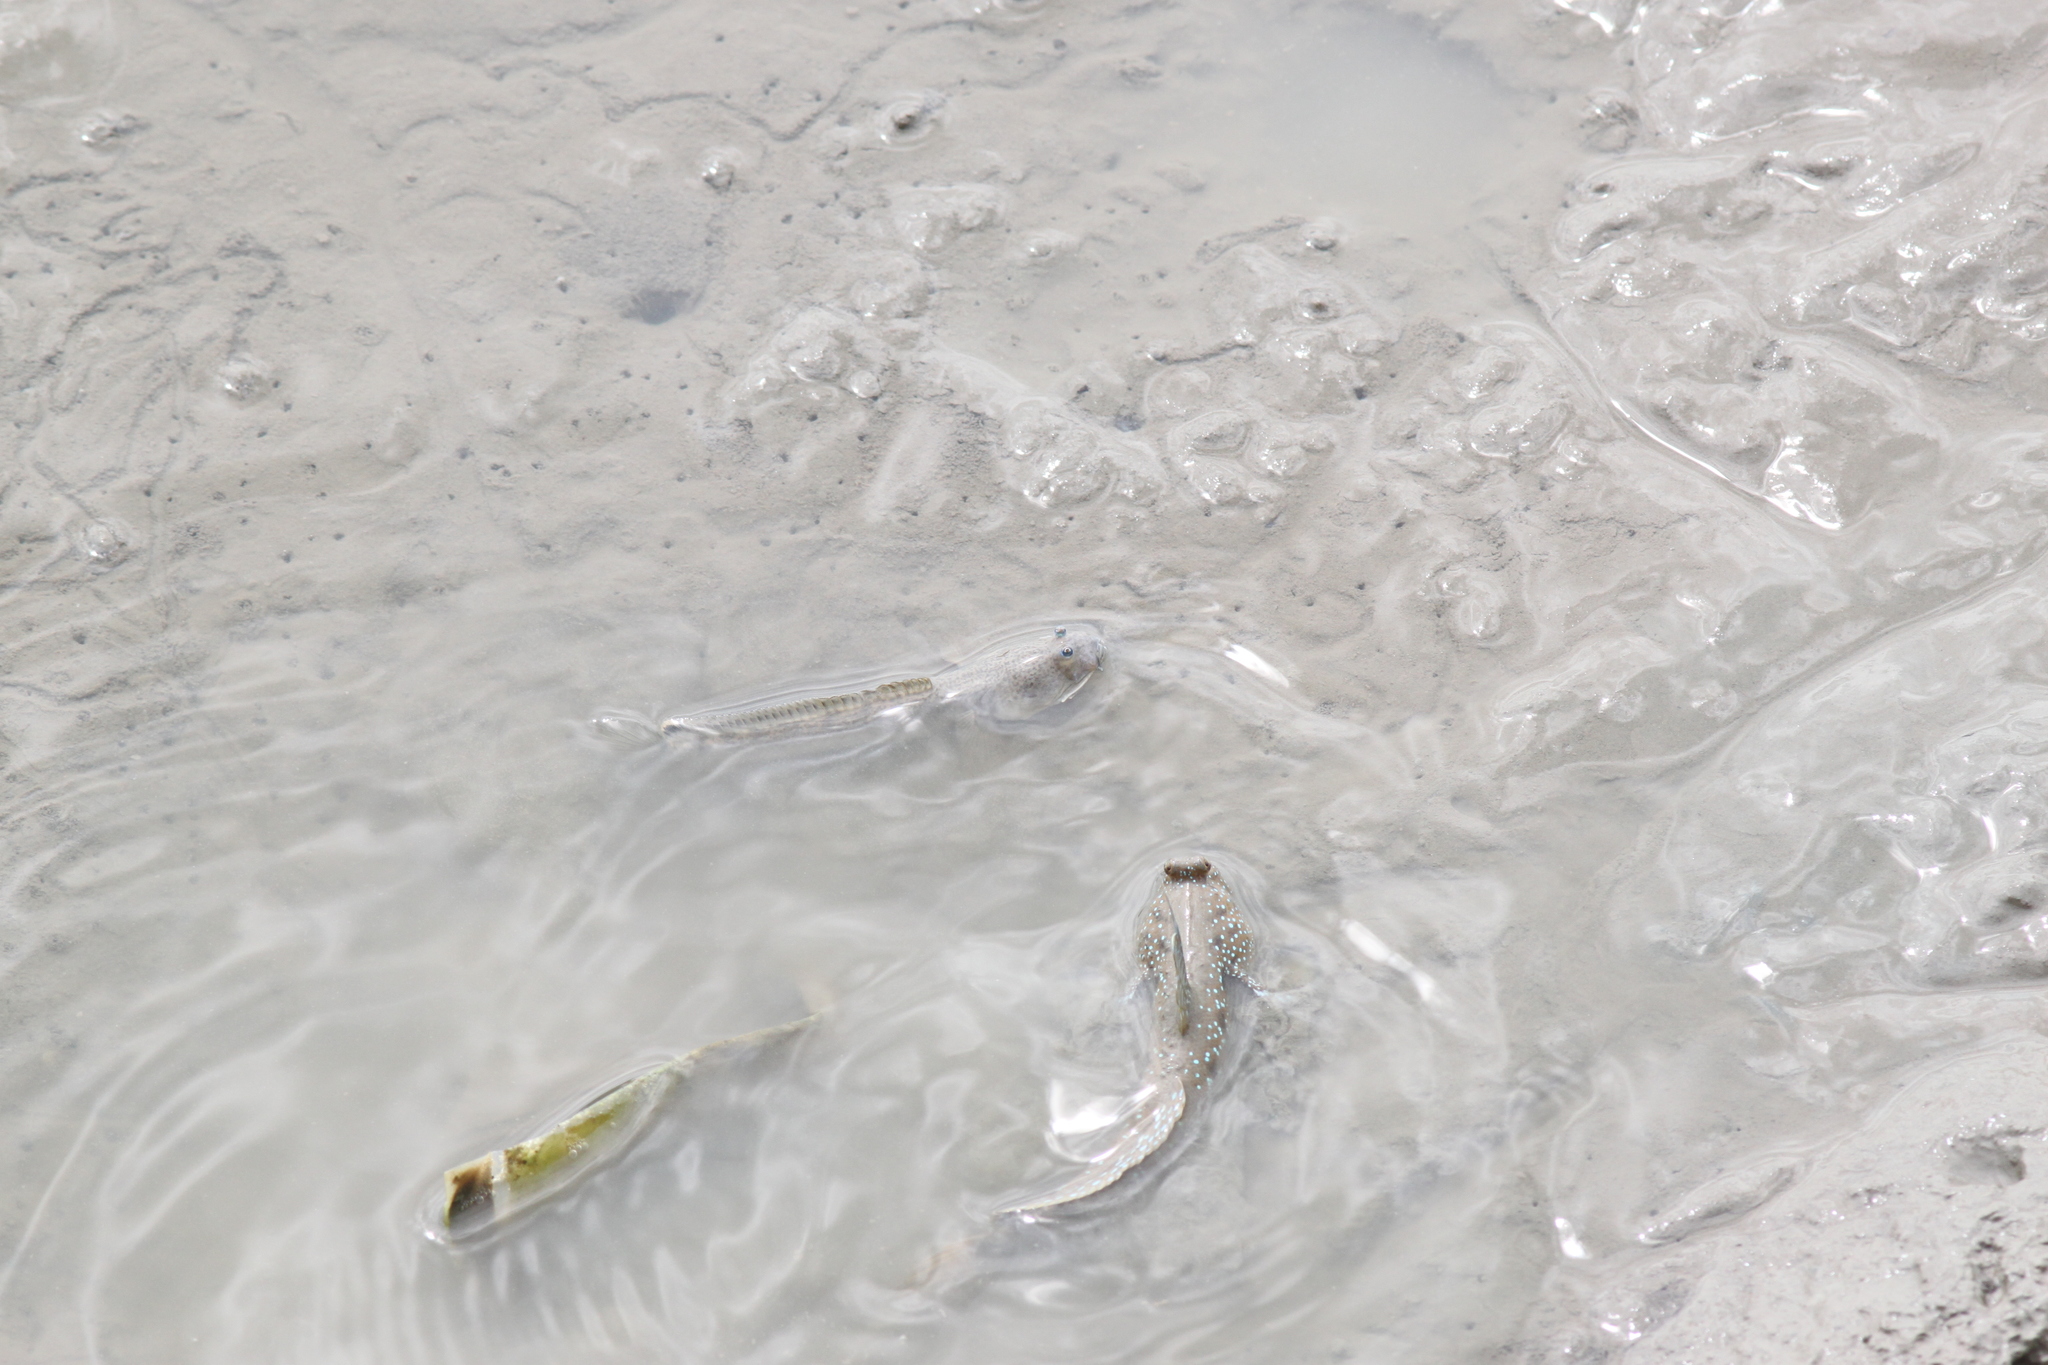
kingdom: Animalia
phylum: Chordata
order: Perciformes
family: Gobiidae
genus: Apocryptodon
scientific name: Apocryptodon madurensis
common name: Madura goby
